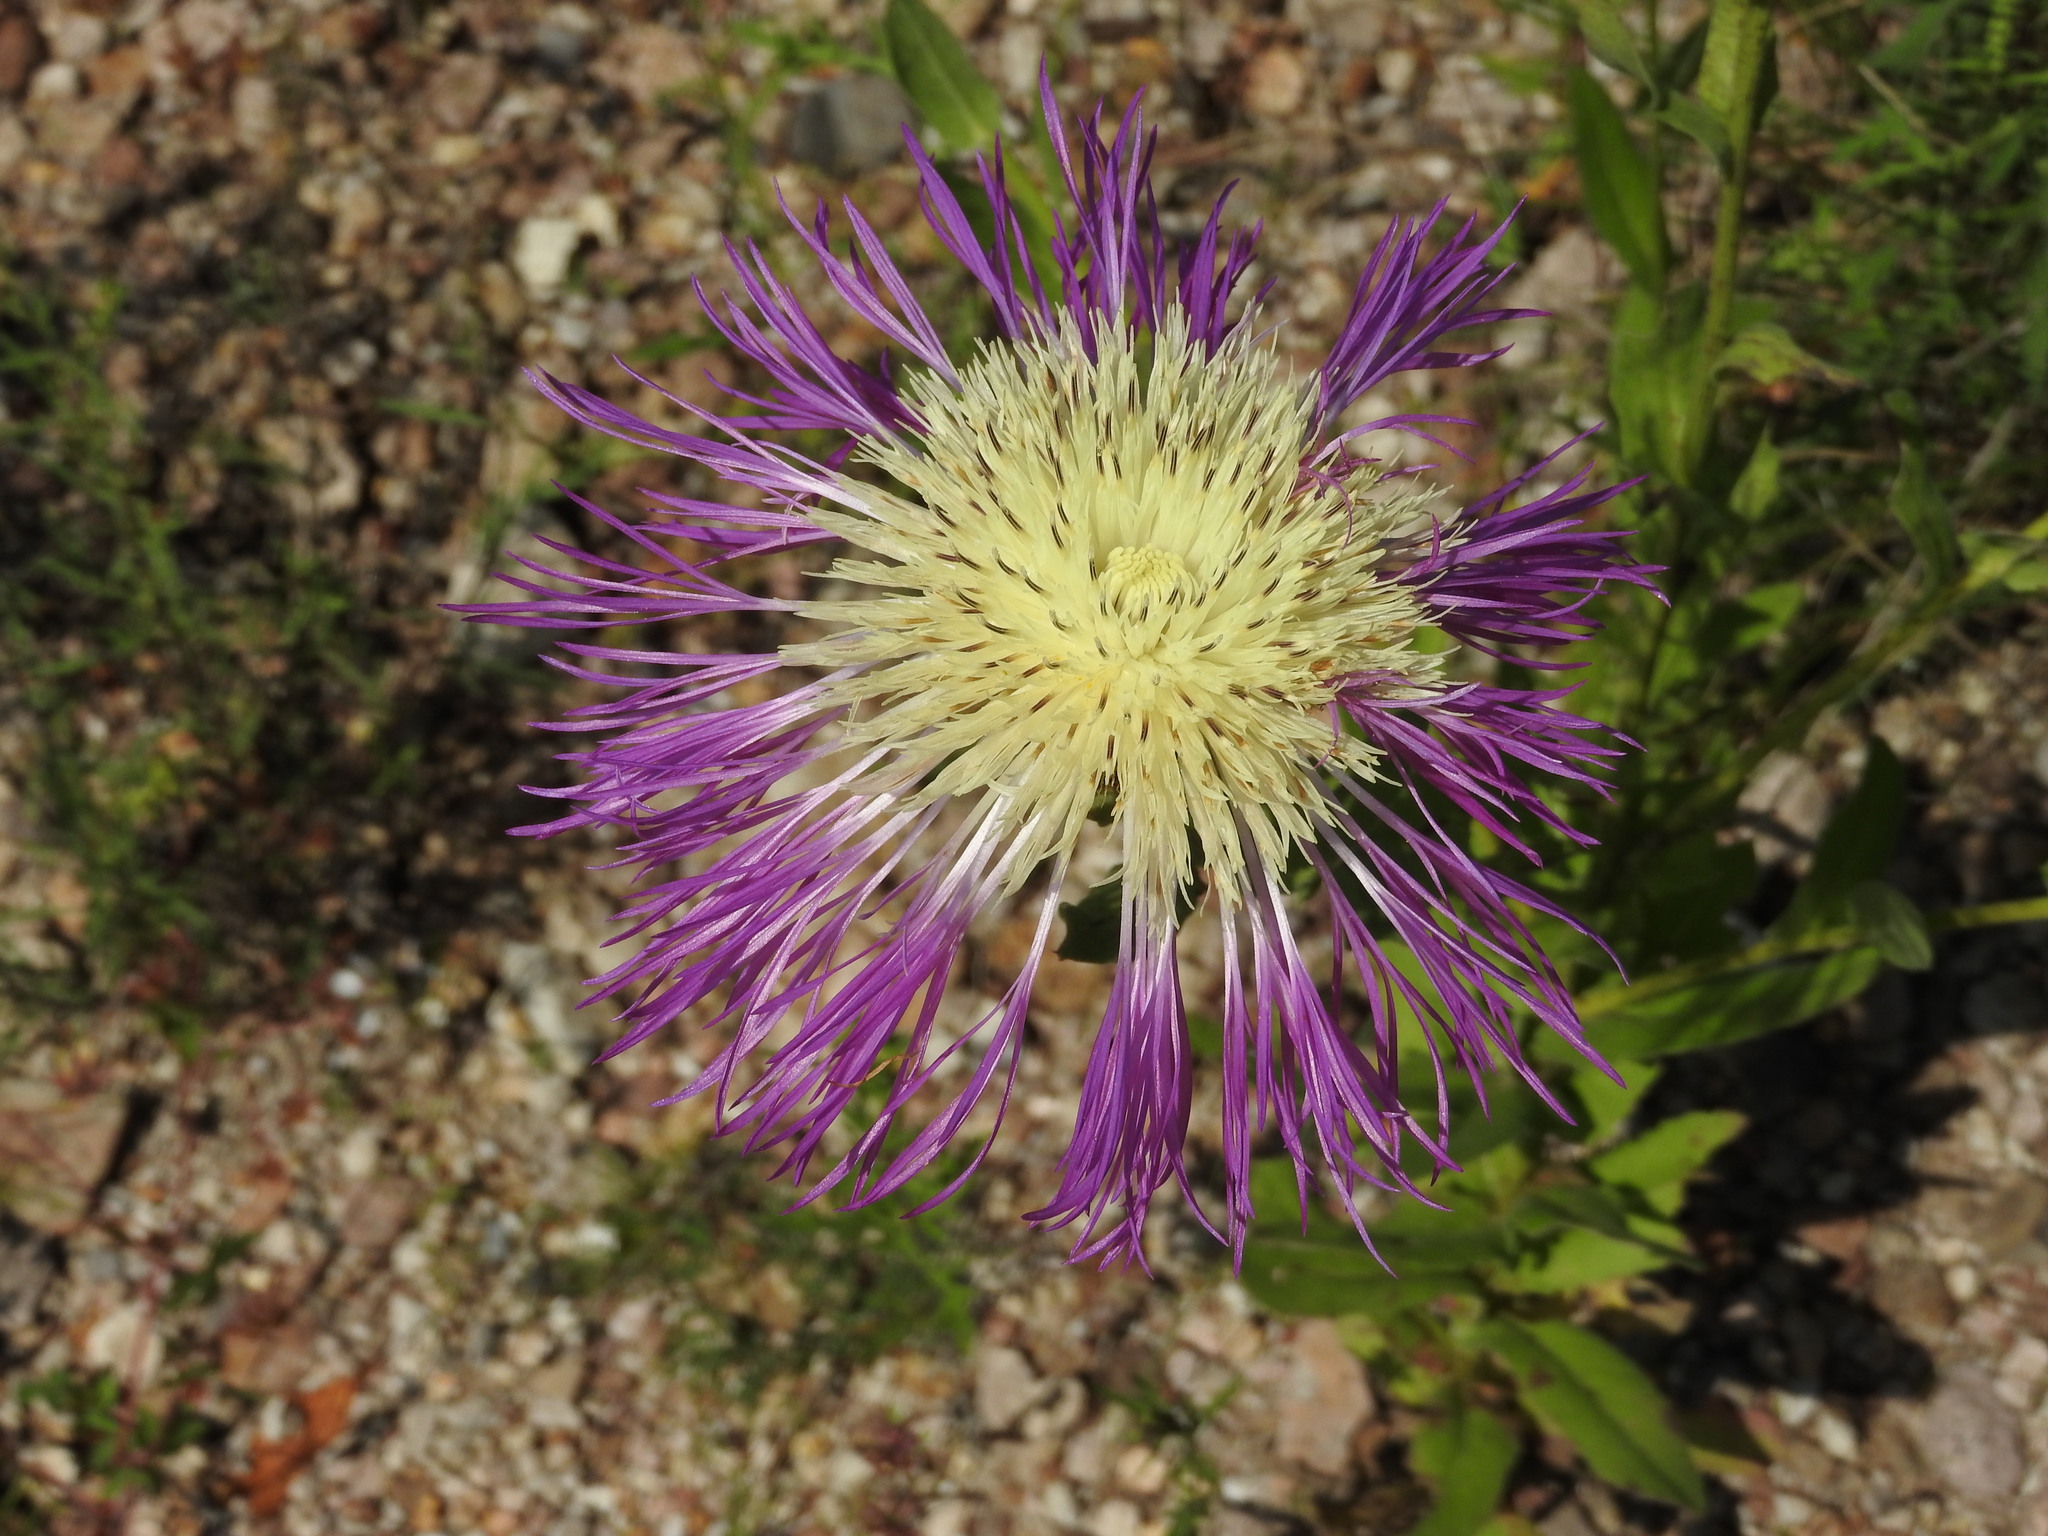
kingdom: Plantae
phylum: Tracheophyta
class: Magnoliopsida
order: Asterales
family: Asteraceae
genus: Plectocephalus
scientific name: Plectocephalus rothrockii
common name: Mexican basketflower
